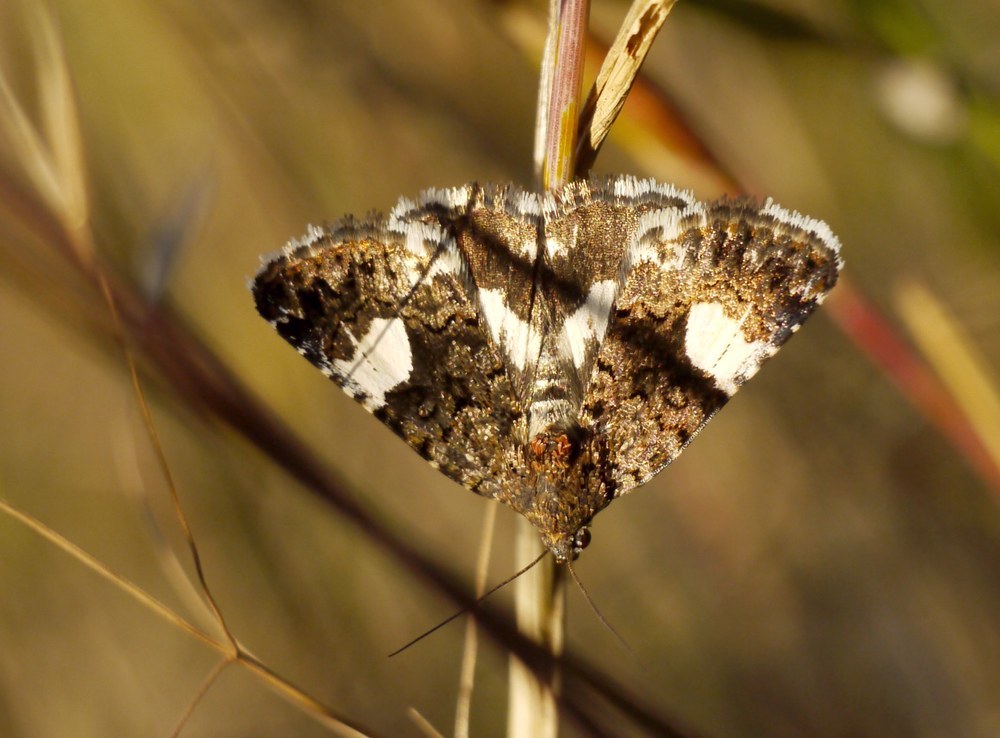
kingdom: Animalia
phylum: Arthropoda
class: Insecta
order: Lepidoptera
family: Erebidae
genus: Tyta
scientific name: Tyta luctuosa
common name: Four-spotted
